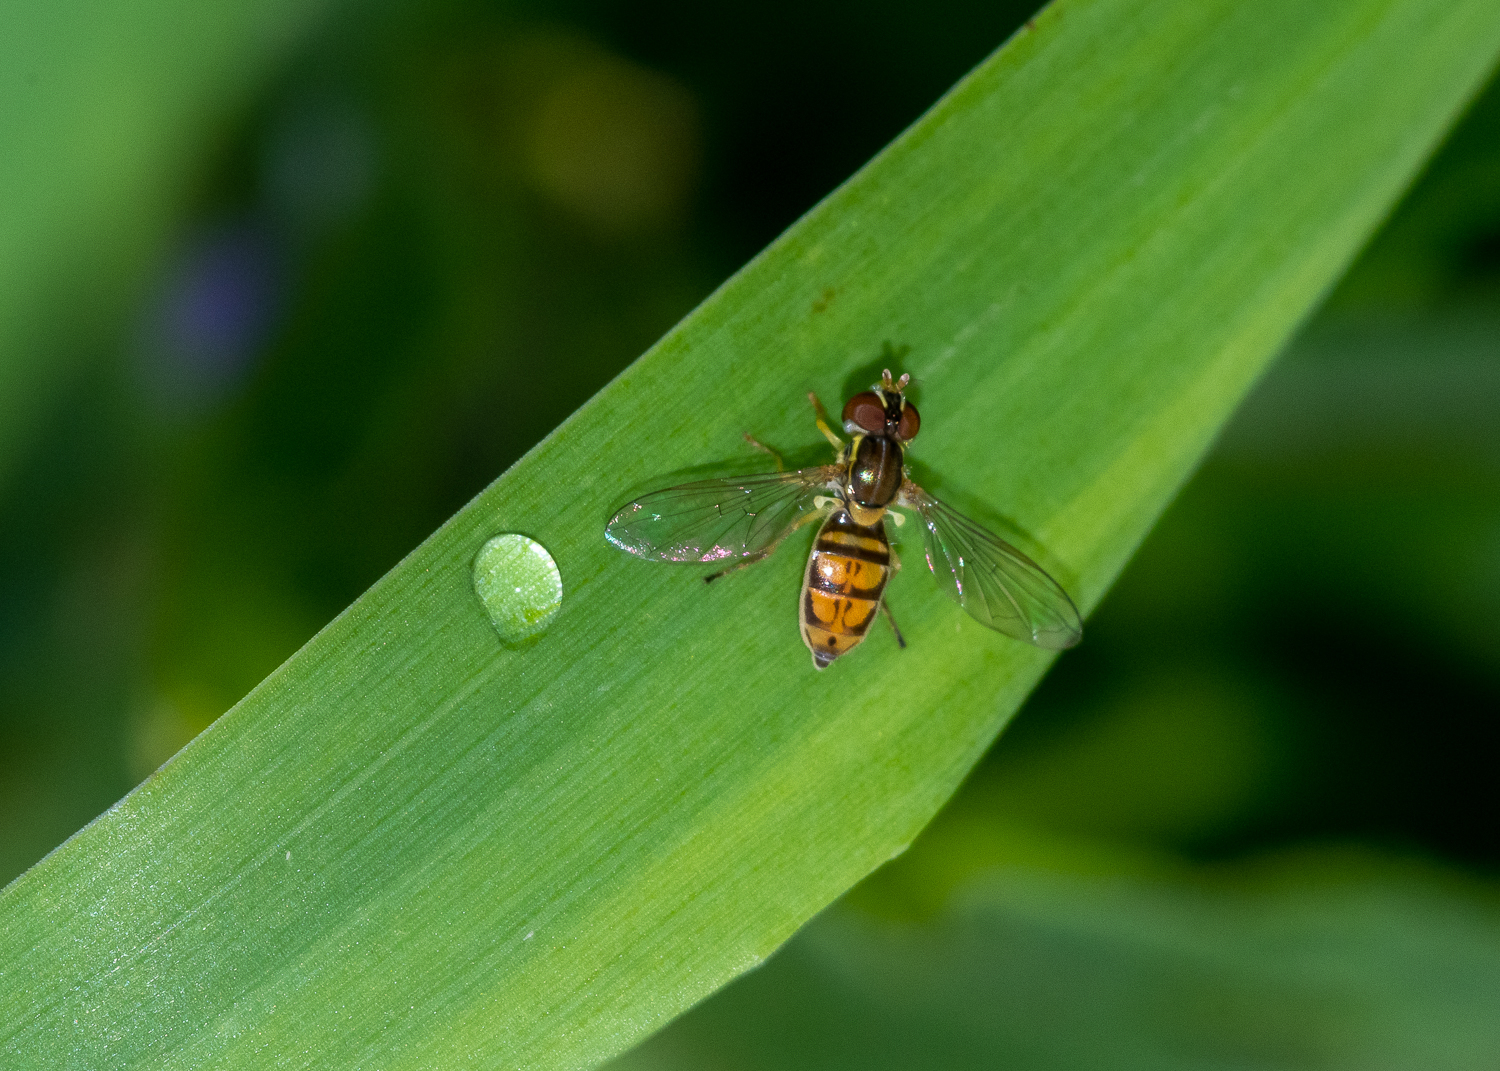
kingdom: Animalia
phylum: Arthropoda
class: Insecta
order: Diptera
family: Syrphidae
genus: Toxomerus
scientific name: Toxomerus marginatus
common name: Syrphid fly
